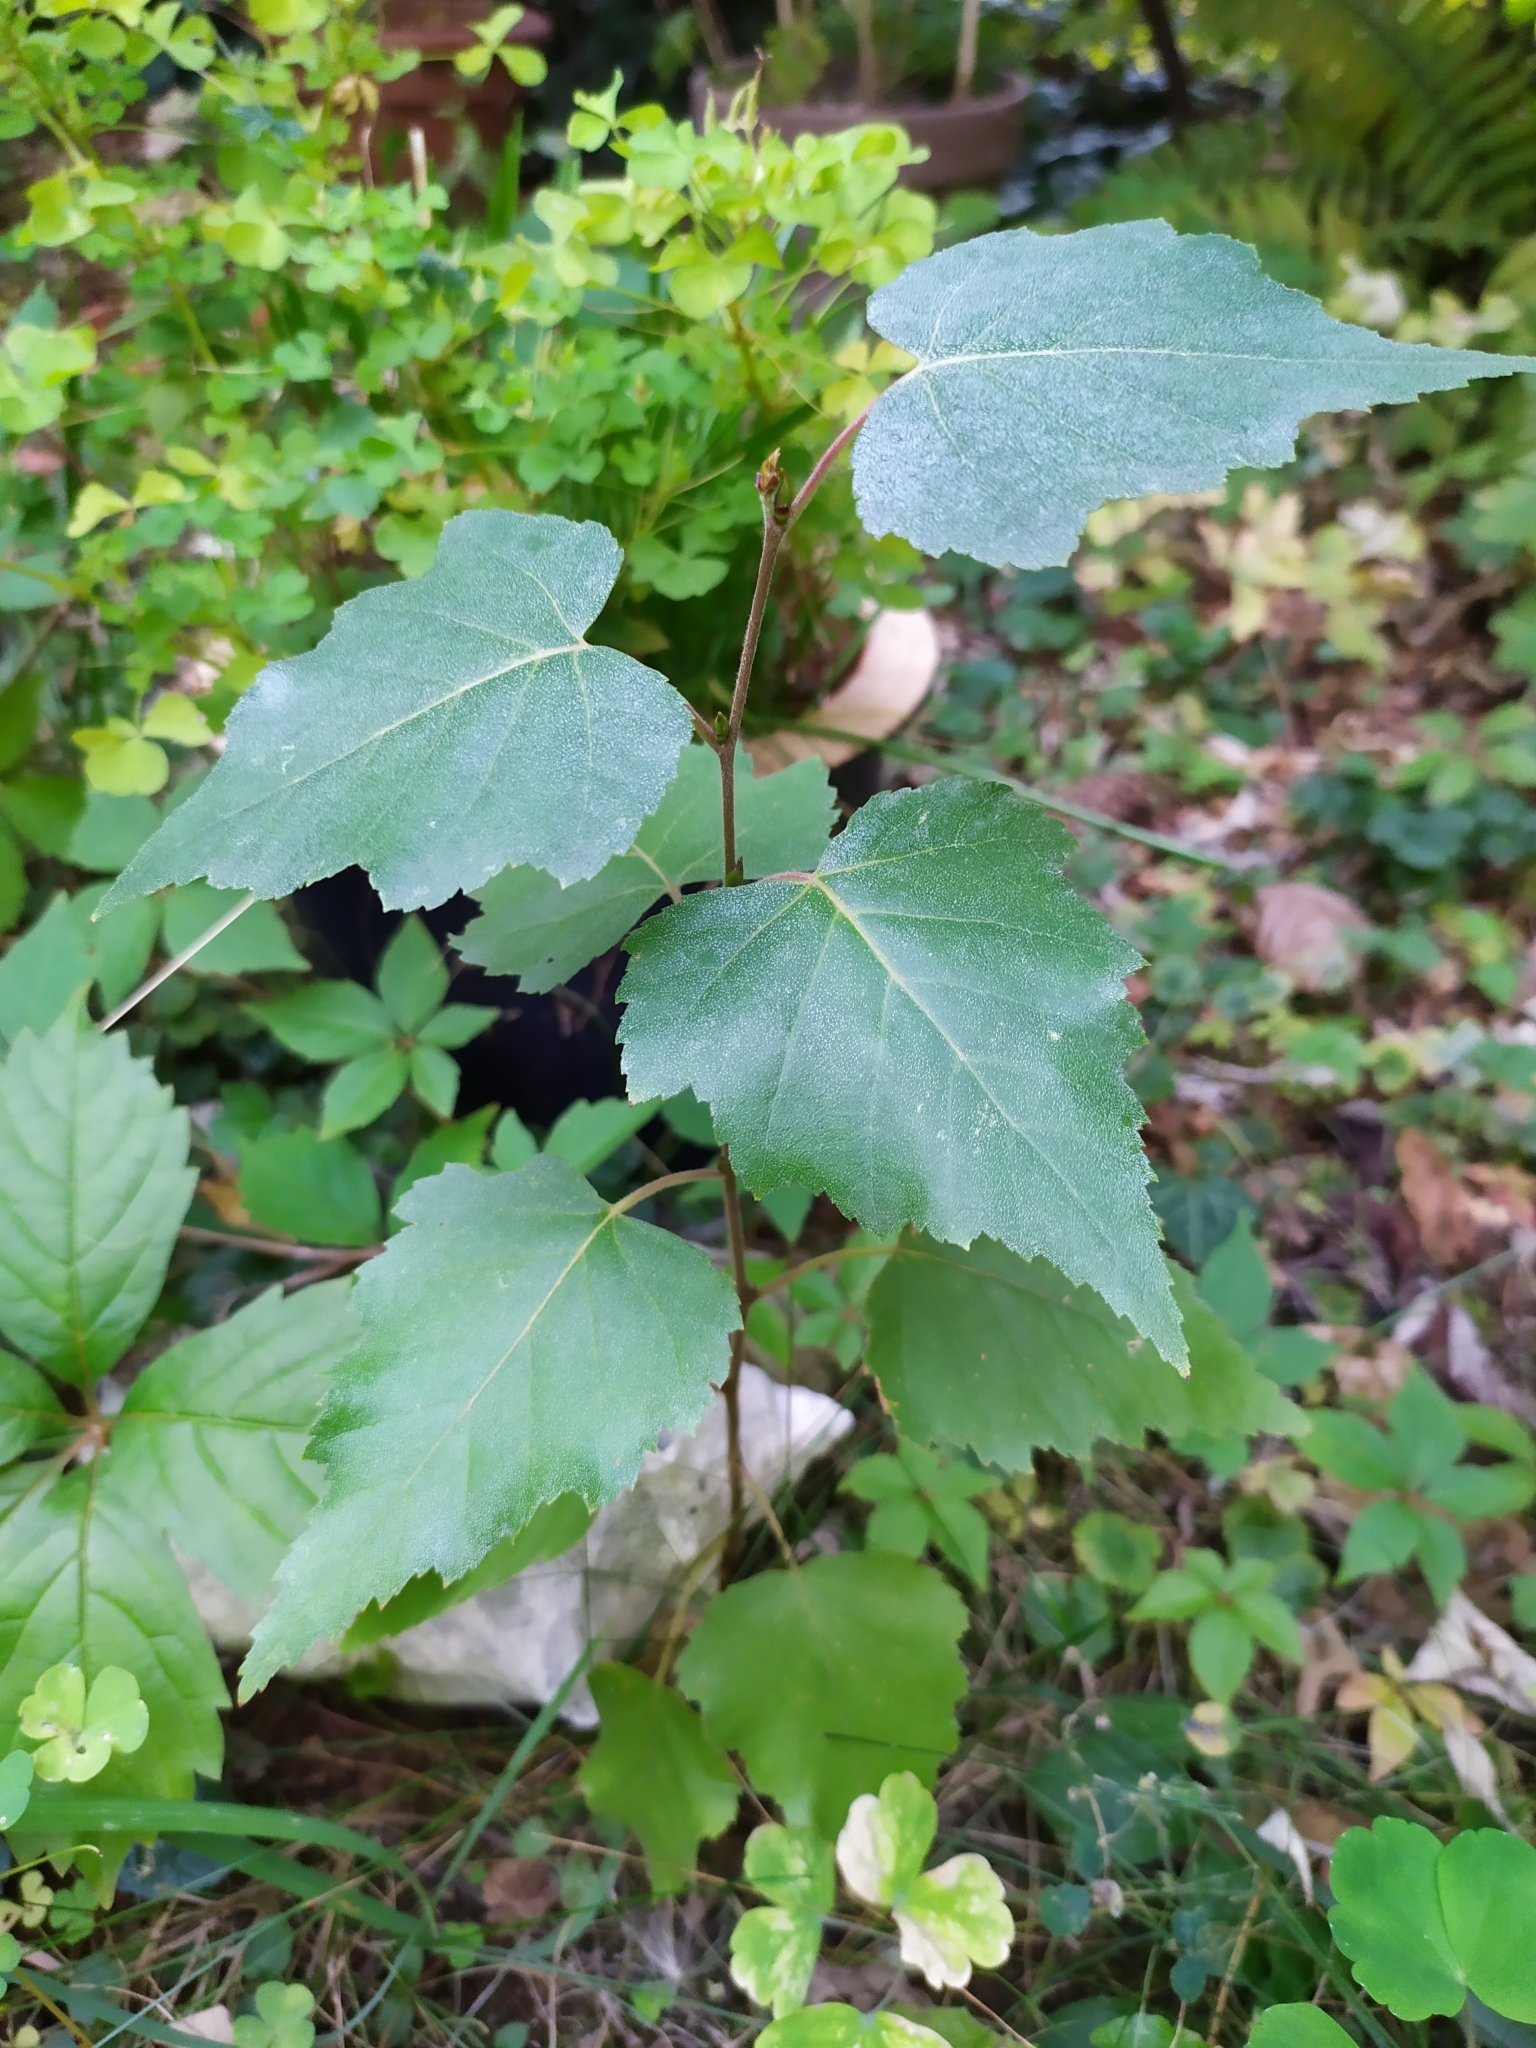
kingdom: Plantae
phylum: Tracheophyta
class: Magnoliopsida
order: Fagales
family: Betulaceae
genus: Betula
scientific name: Betula pendula
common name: Silver birch
